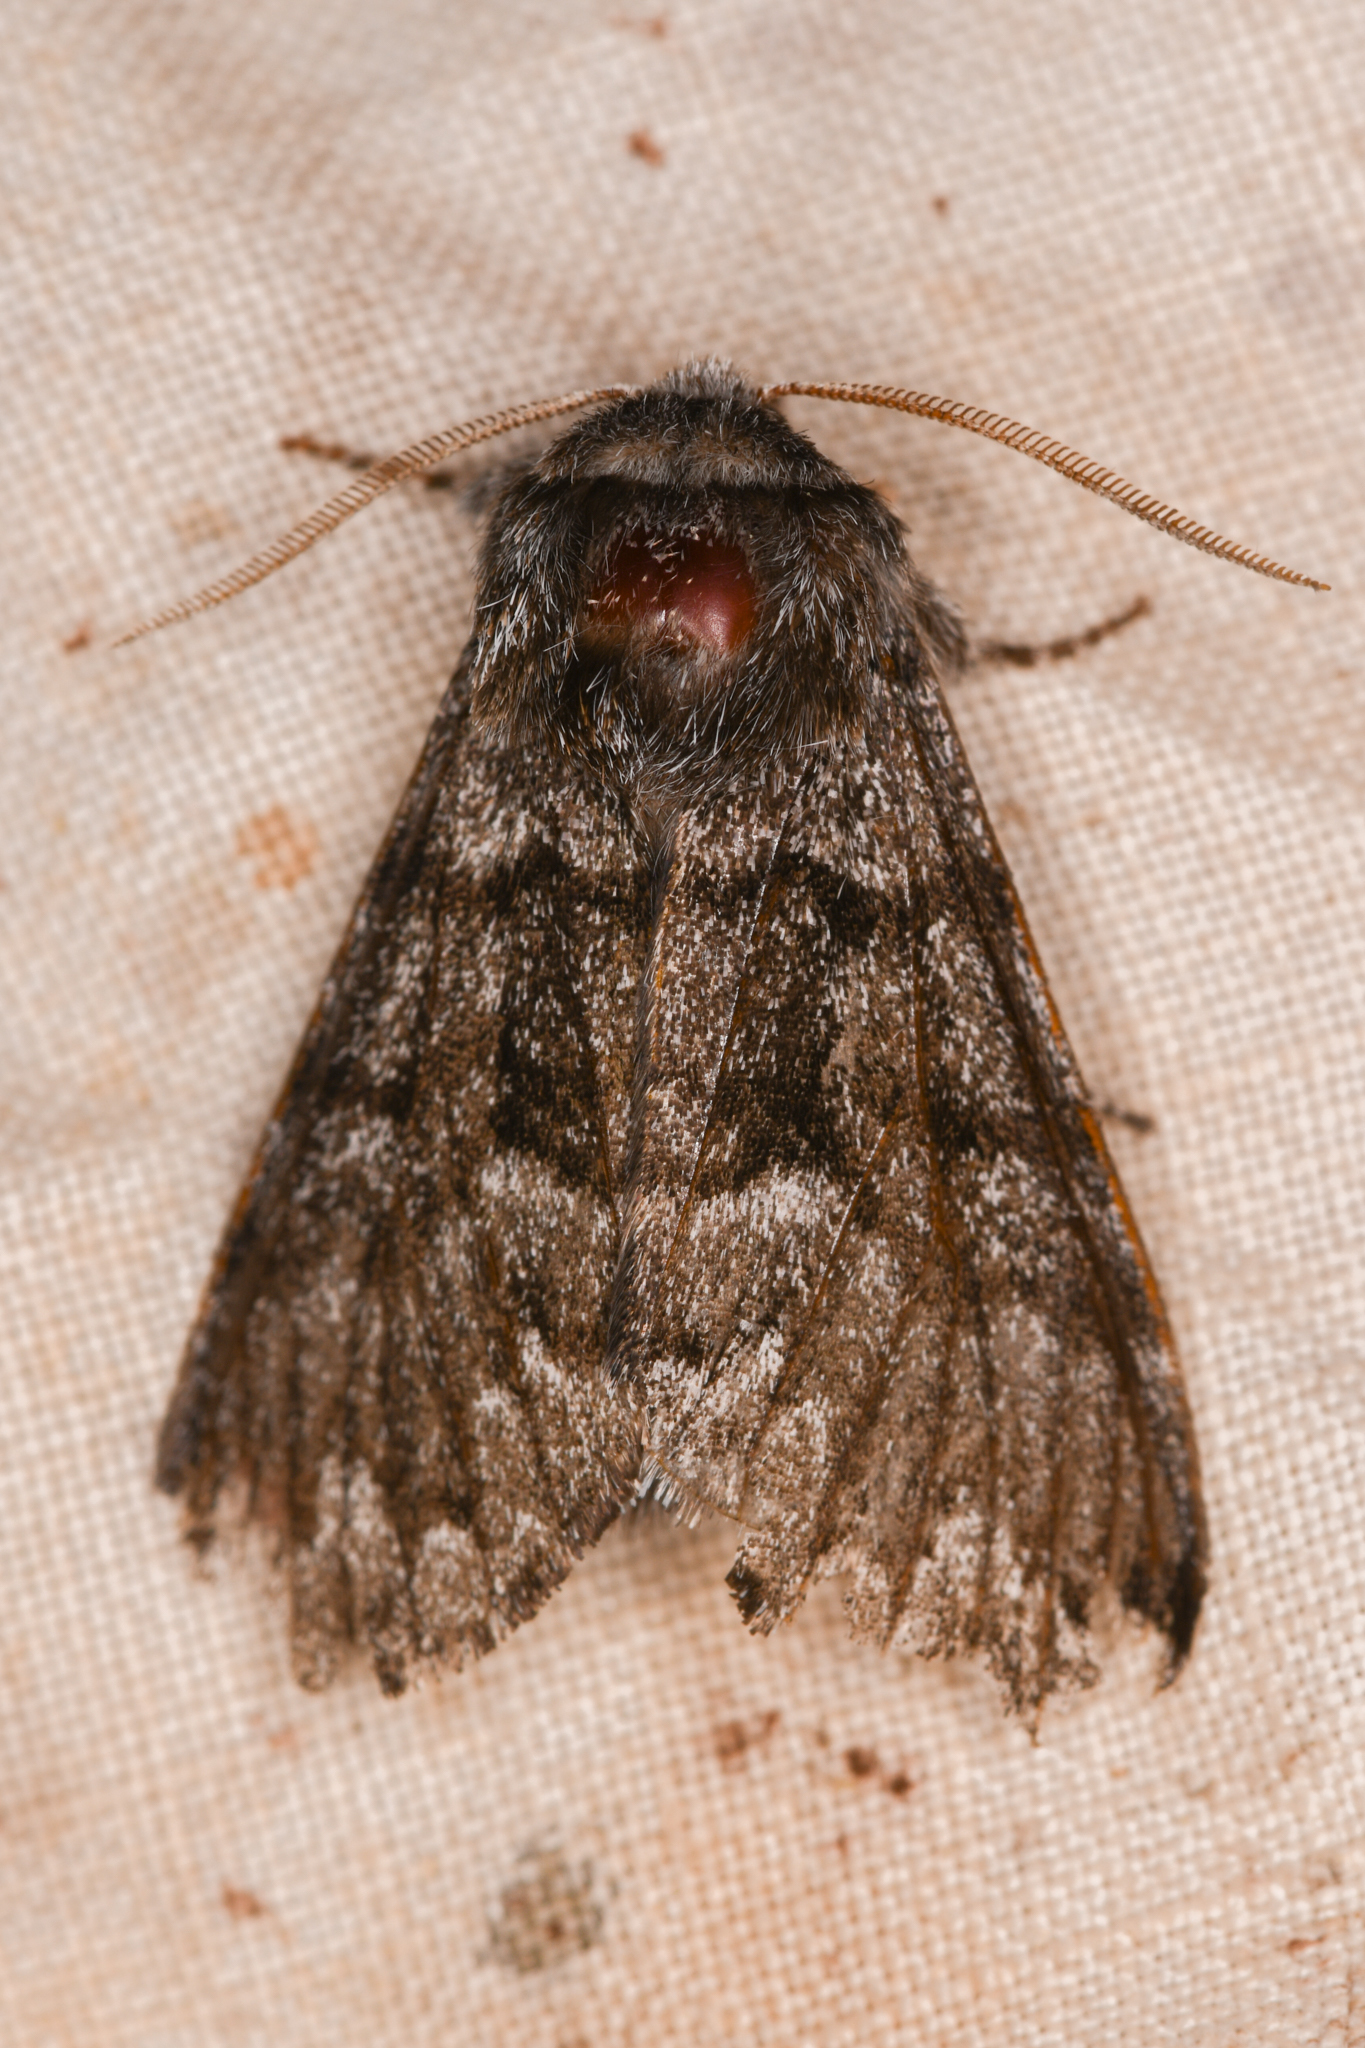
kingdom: Animalia
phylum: Arthropoda
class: Insecta
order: Lepidoptera
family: Noctuidae
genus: Panthea
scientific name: Panthea virginarius
